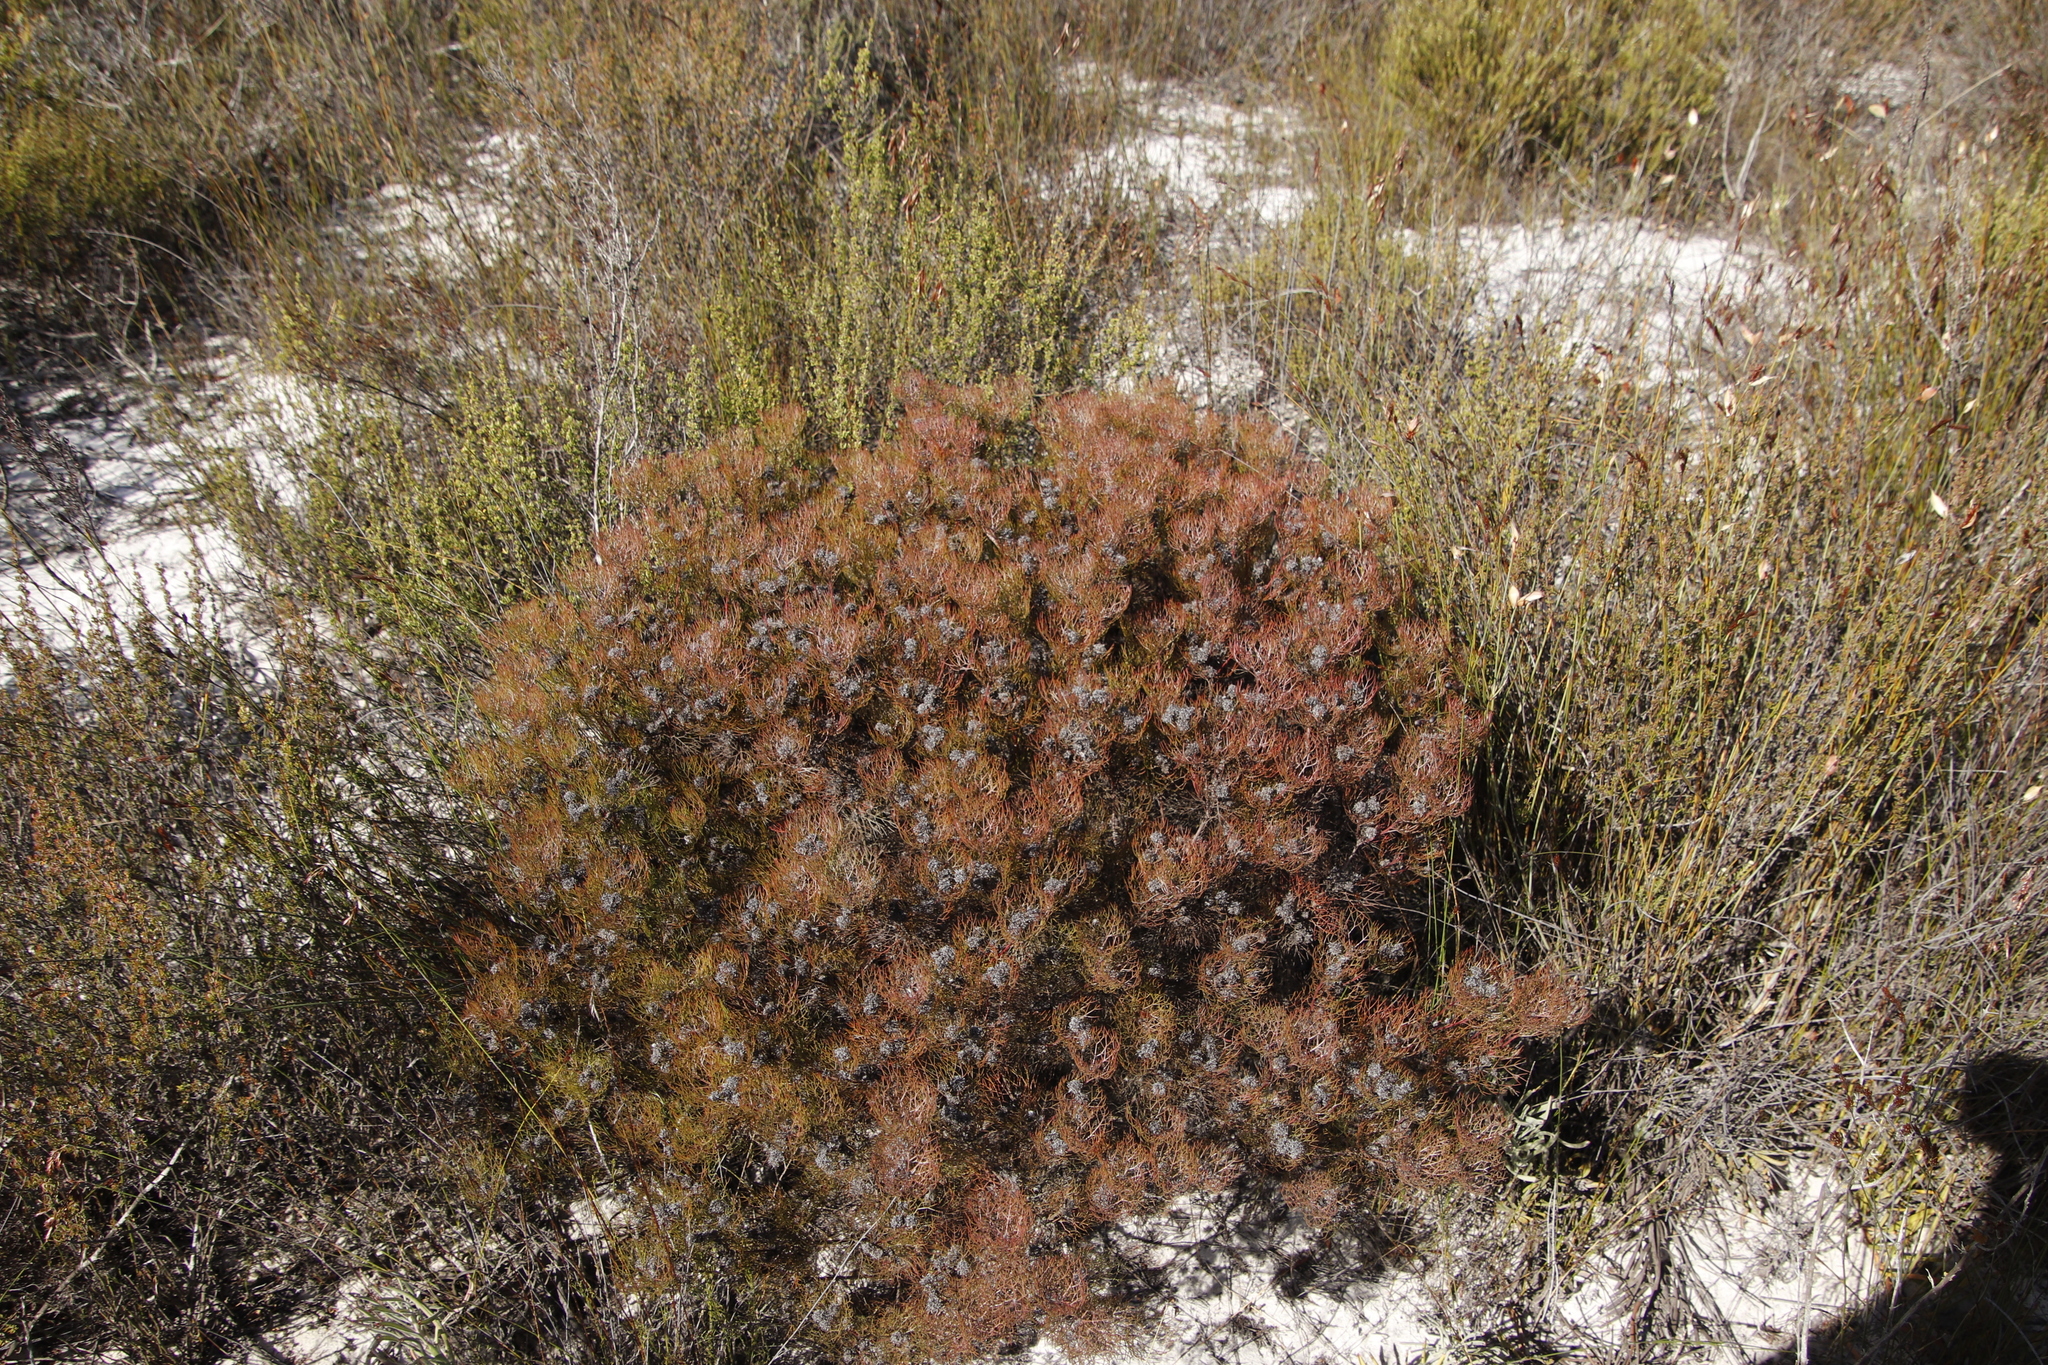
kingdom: Plantae
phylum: Tracheophyta
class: Magnoliopsida
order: Proteales
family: Proteaceae
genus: Serruria
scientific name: Serruria fasciflora
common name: Common pin spiderhead
